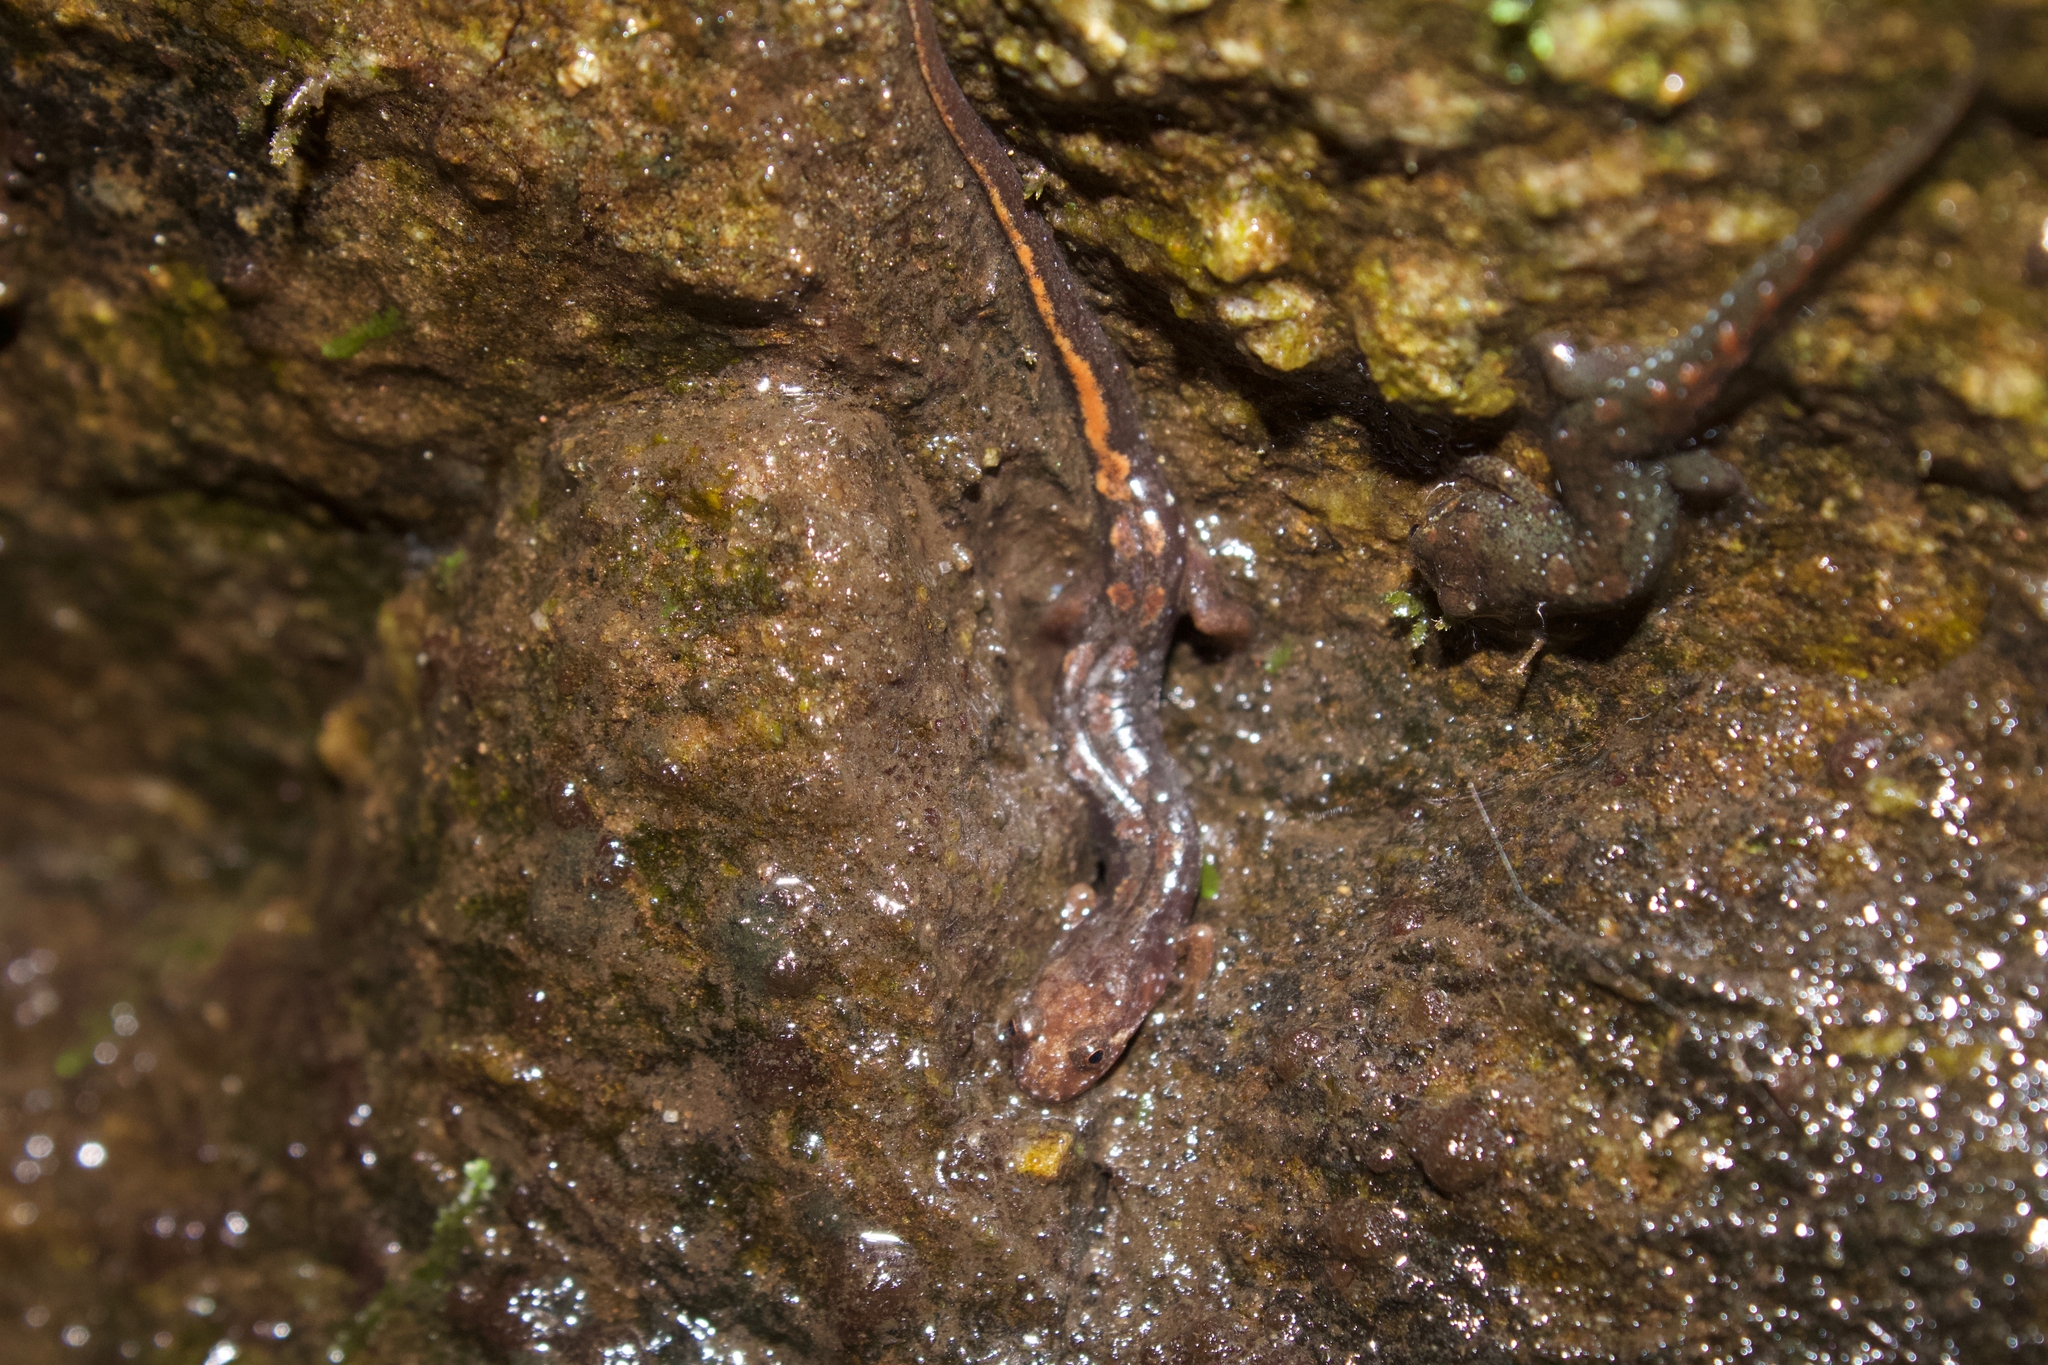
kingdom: Animalia
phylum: Chordata
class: Amphibia
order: Caudata
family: Plethodontidae
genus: Desmognathus
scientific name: Desmognathus ocoee
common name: Ocoee salamander
